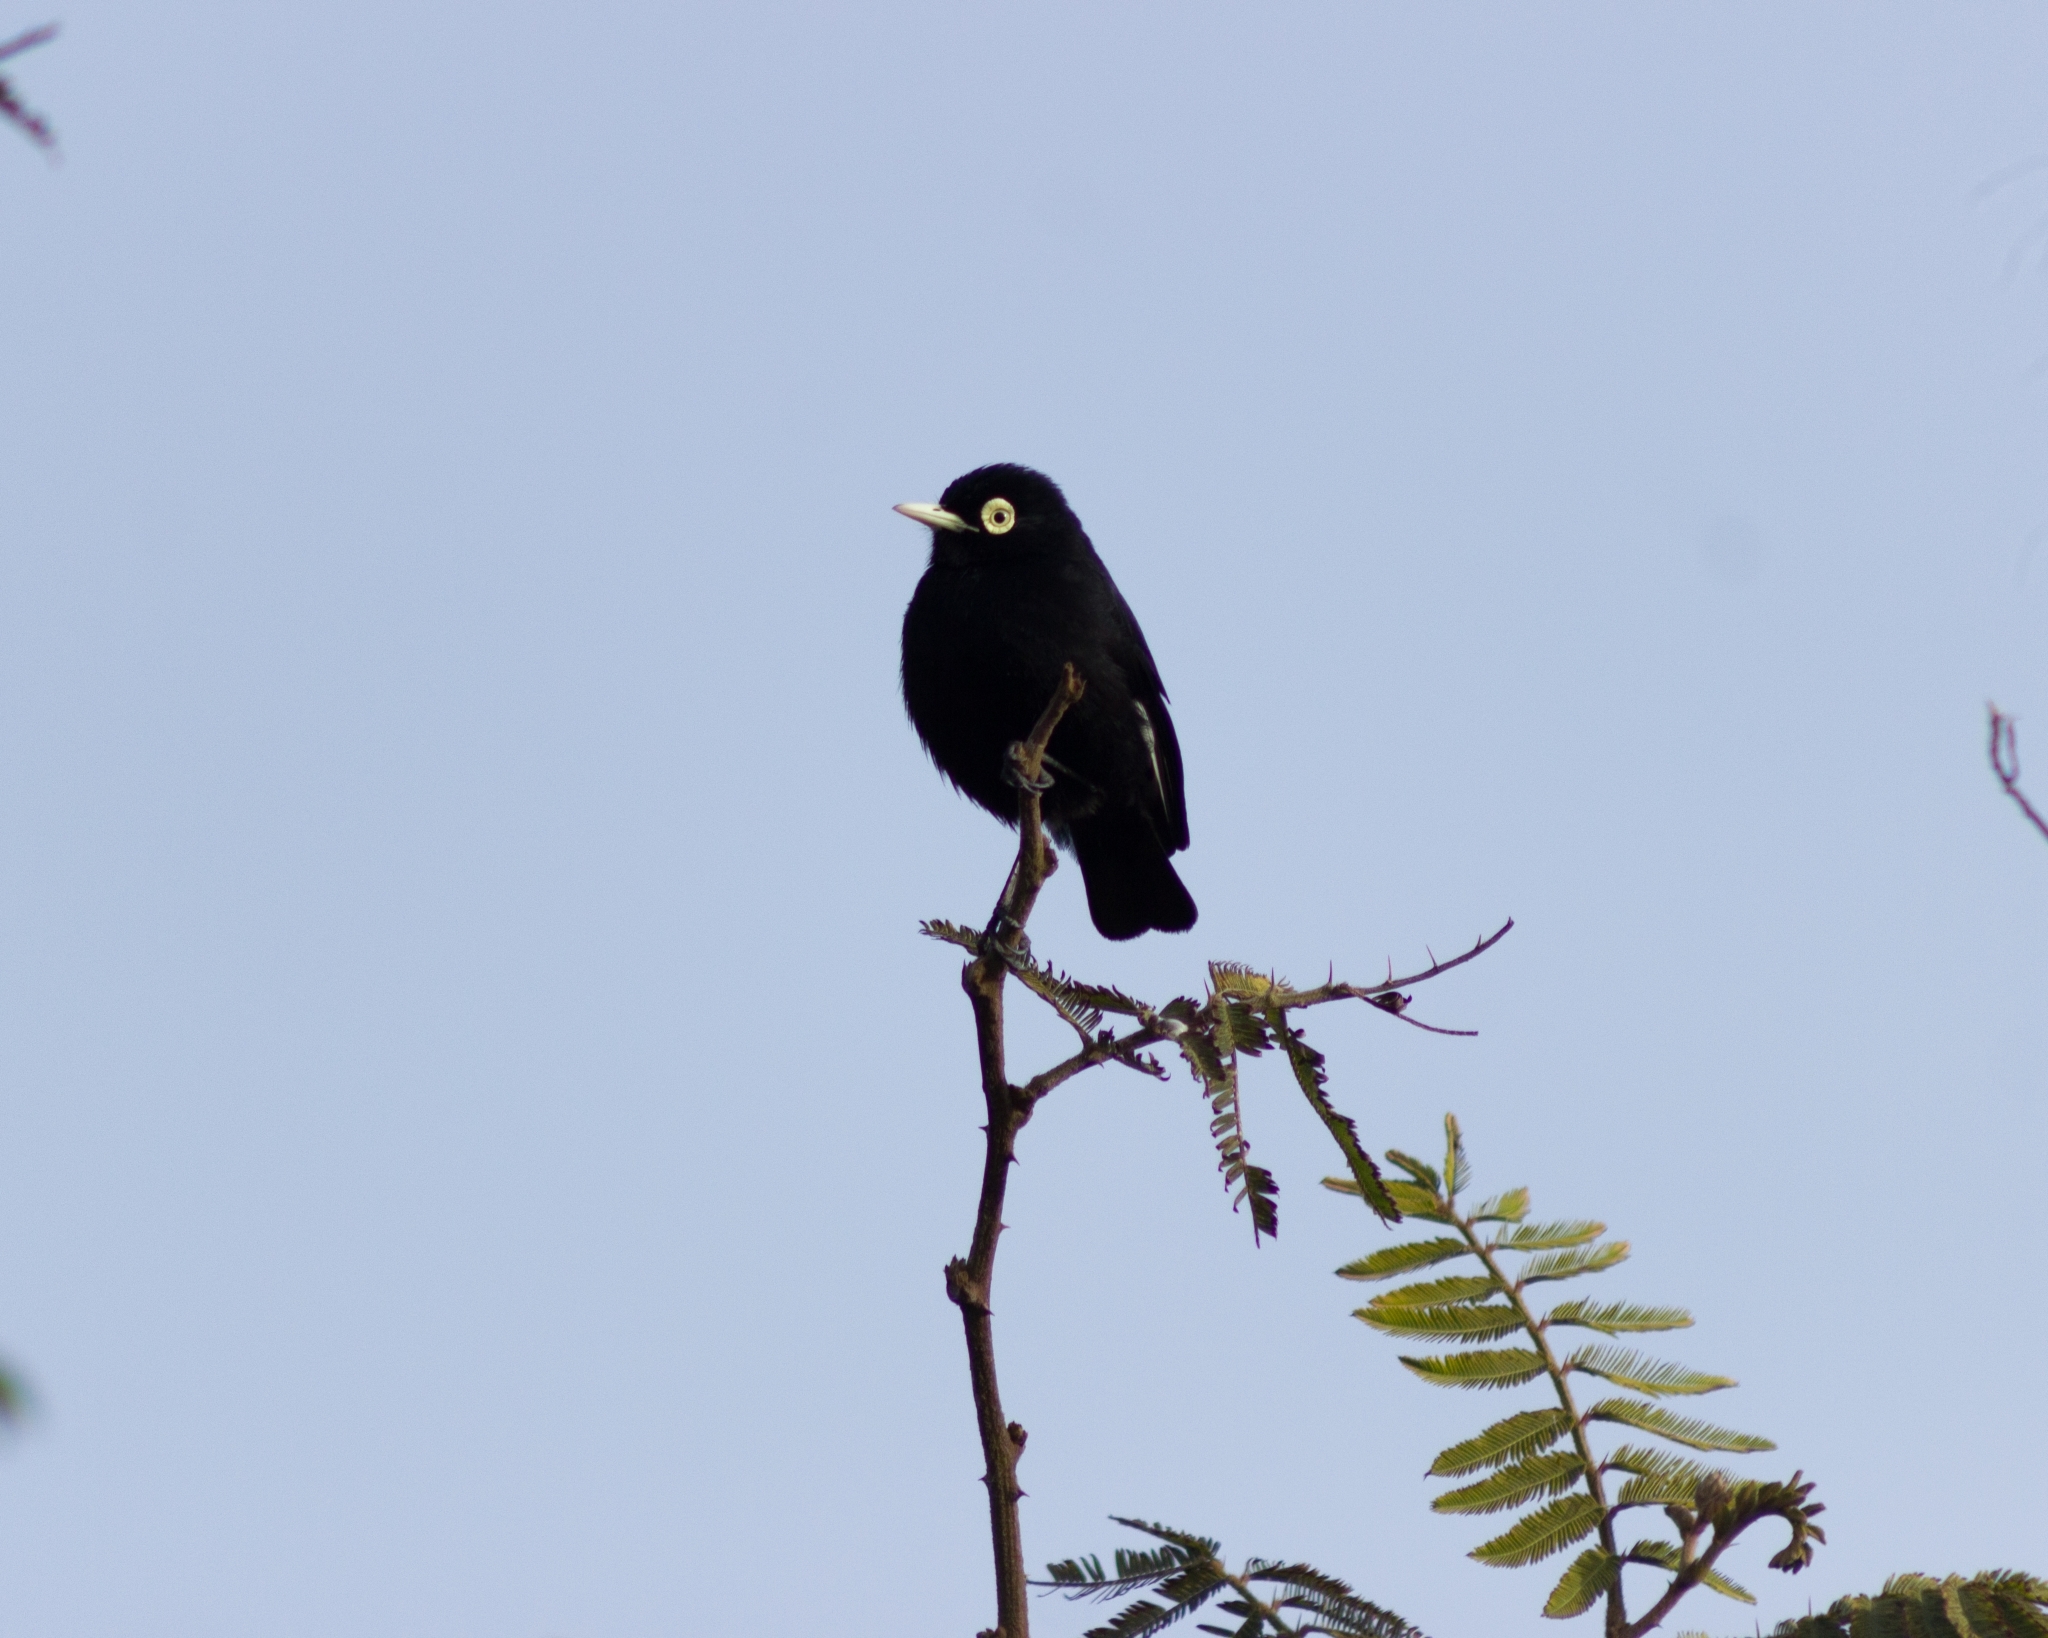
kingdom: Animalia
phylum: Chordata
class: Aves
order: Passeriformes
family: Tyrannidae
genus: Hymenops
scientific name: Hymenops perspicillatus
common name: Spectacled tyrant
